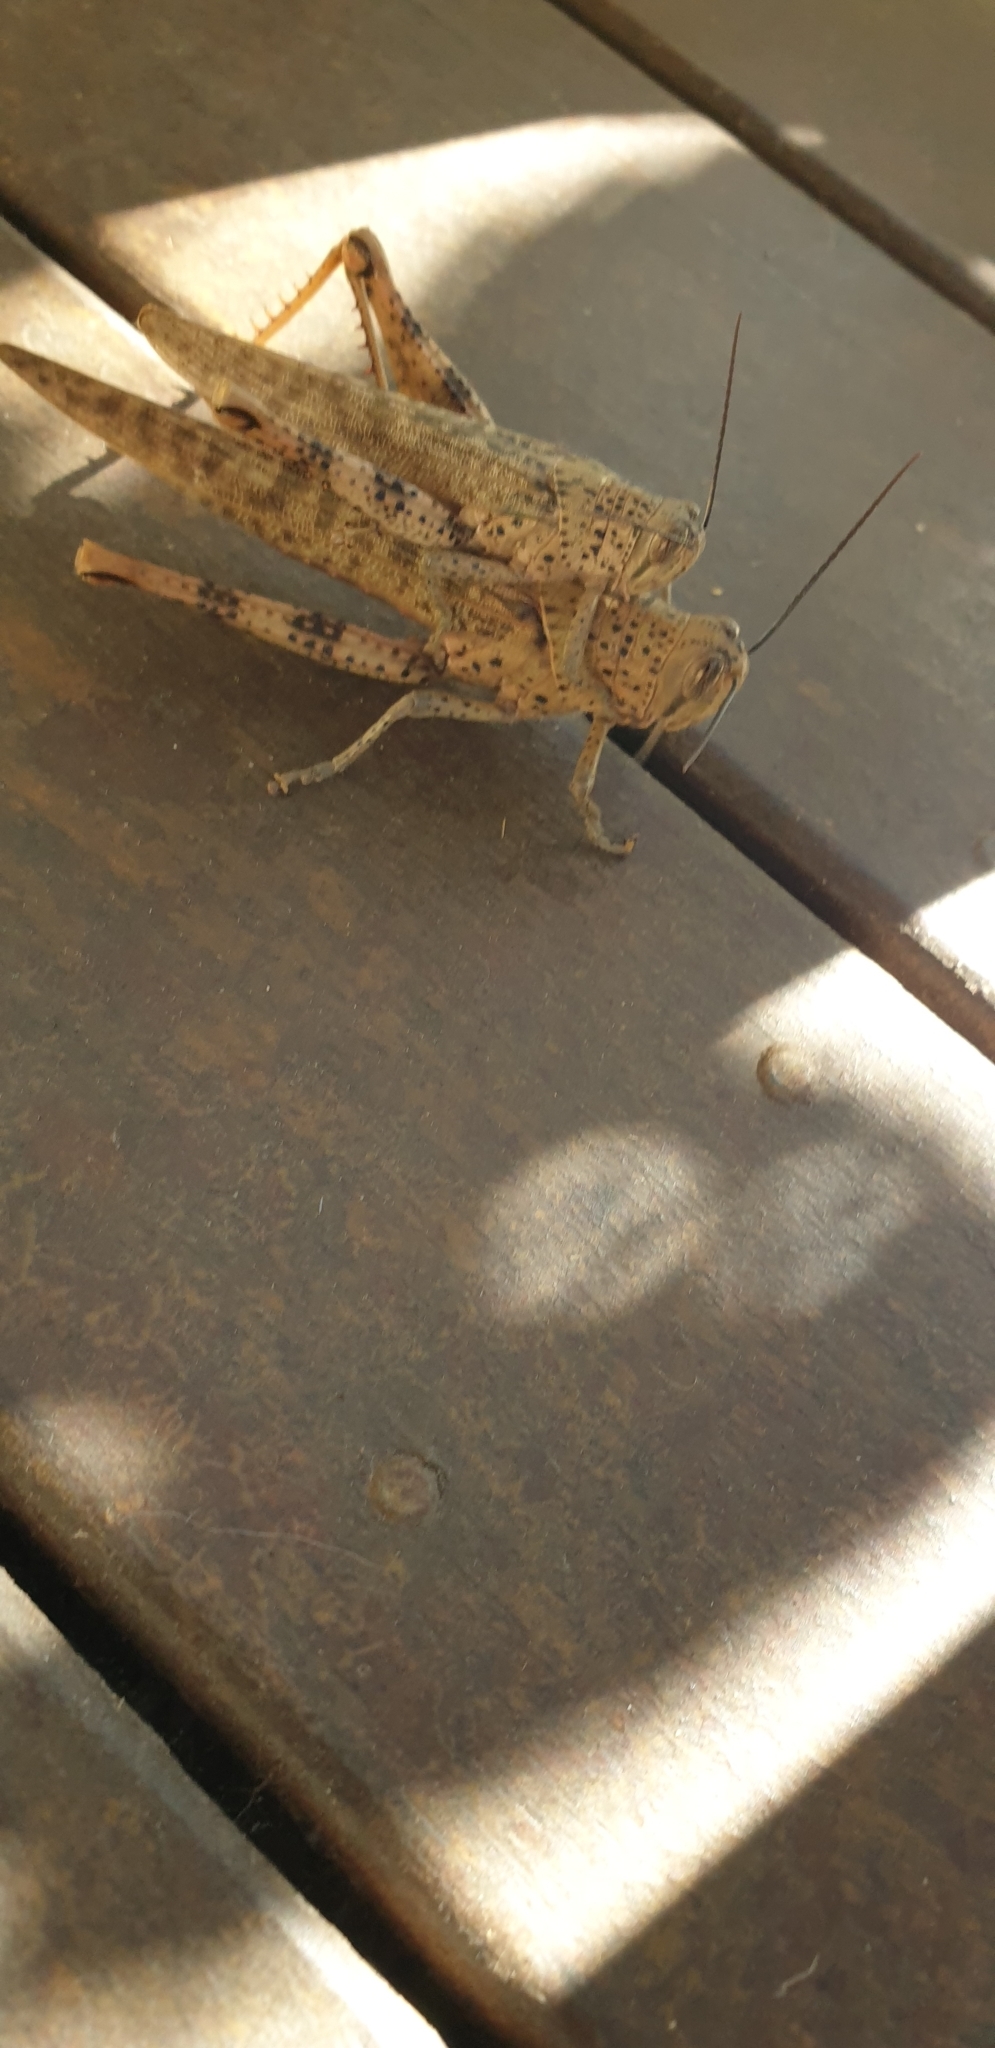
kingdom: Animalia
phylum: Arthropoda
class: Insecta
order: Orthoptera
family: Acrididae
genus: Valanga
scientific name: Valanga irregularis
